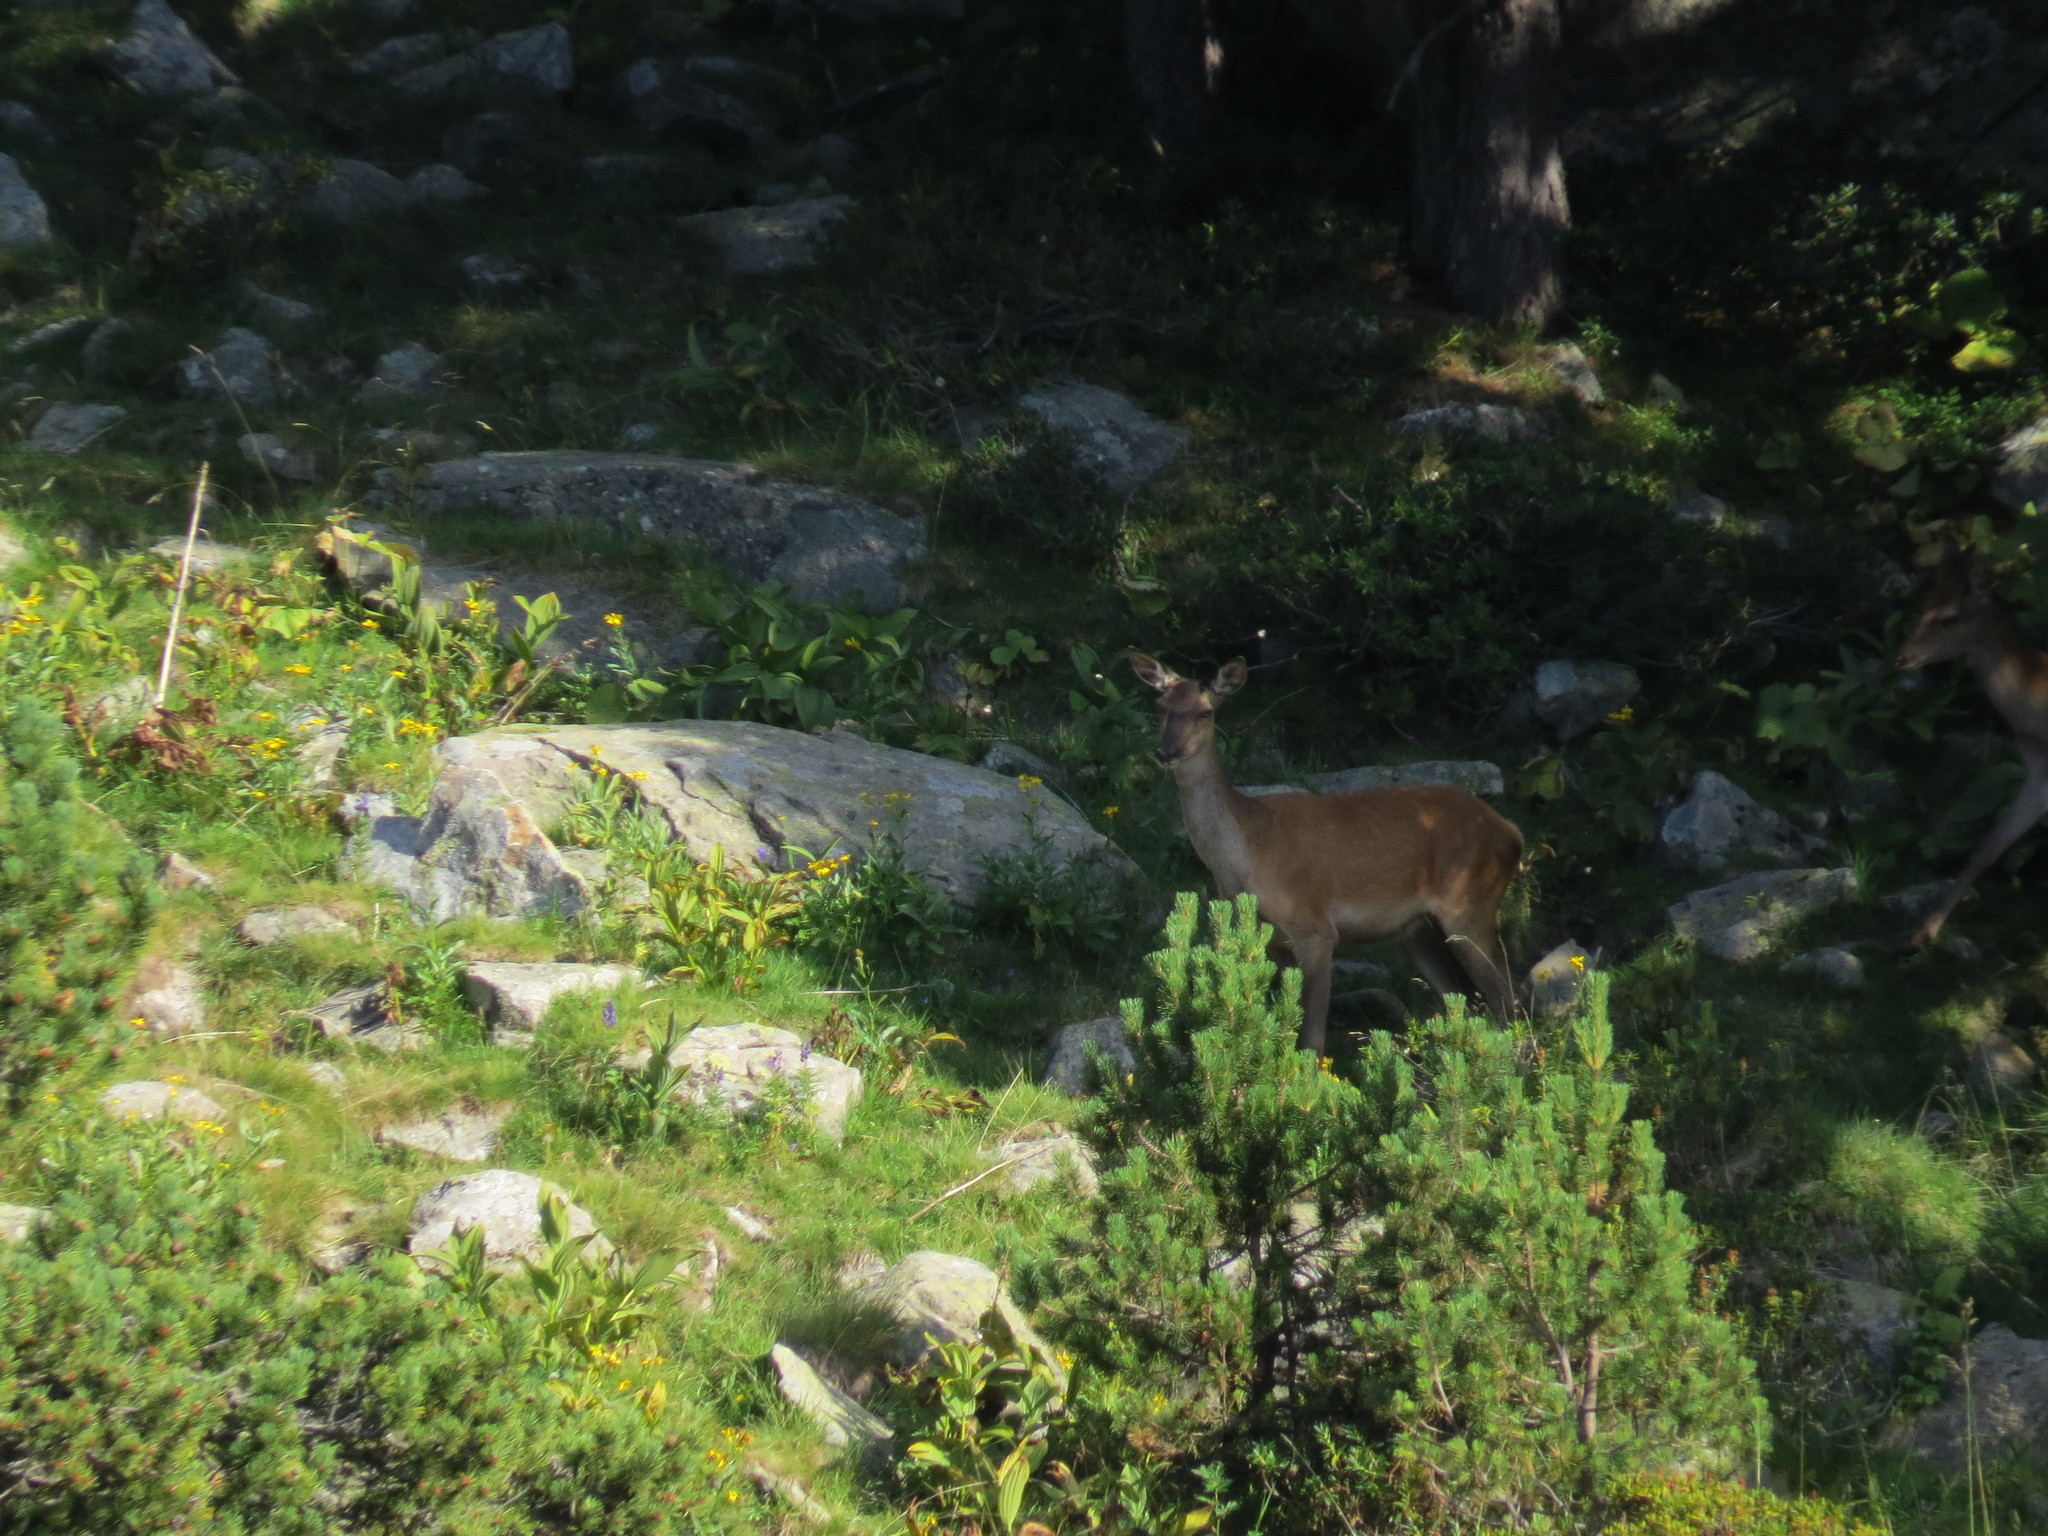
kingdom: Animalia
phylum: Chordata
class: Mammalia
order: Artiodactyla
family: Cervidae
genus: Cervus
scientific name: Cervus elaphus
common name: Red deer
